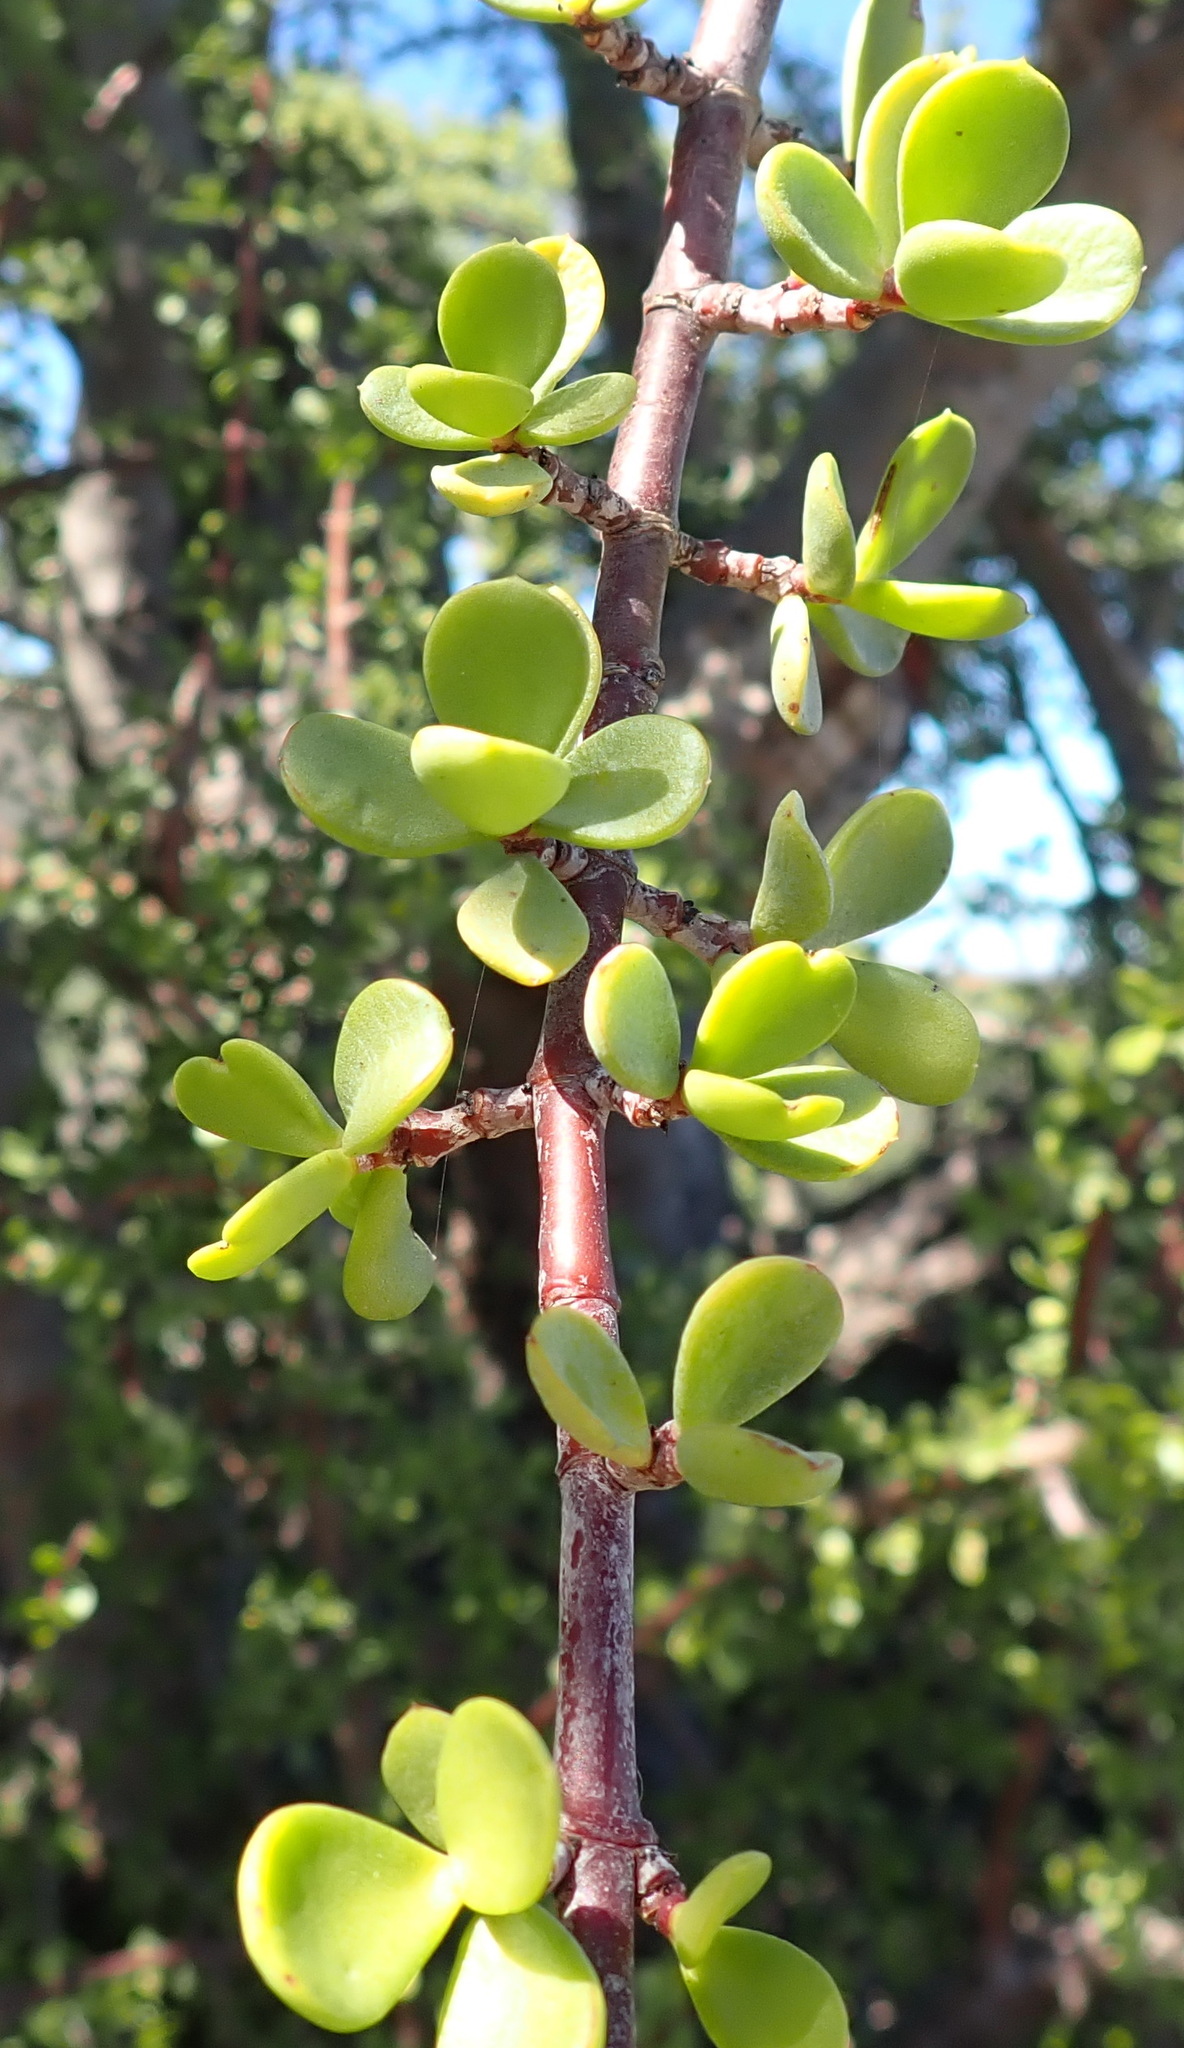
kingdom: Plantae
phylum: Tracheophyta
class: Magnoliopsida
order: Caryophyllales
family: Didiereaceae
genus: Portulacaria
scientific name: Portulacaria afra
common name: Elephant-bush
